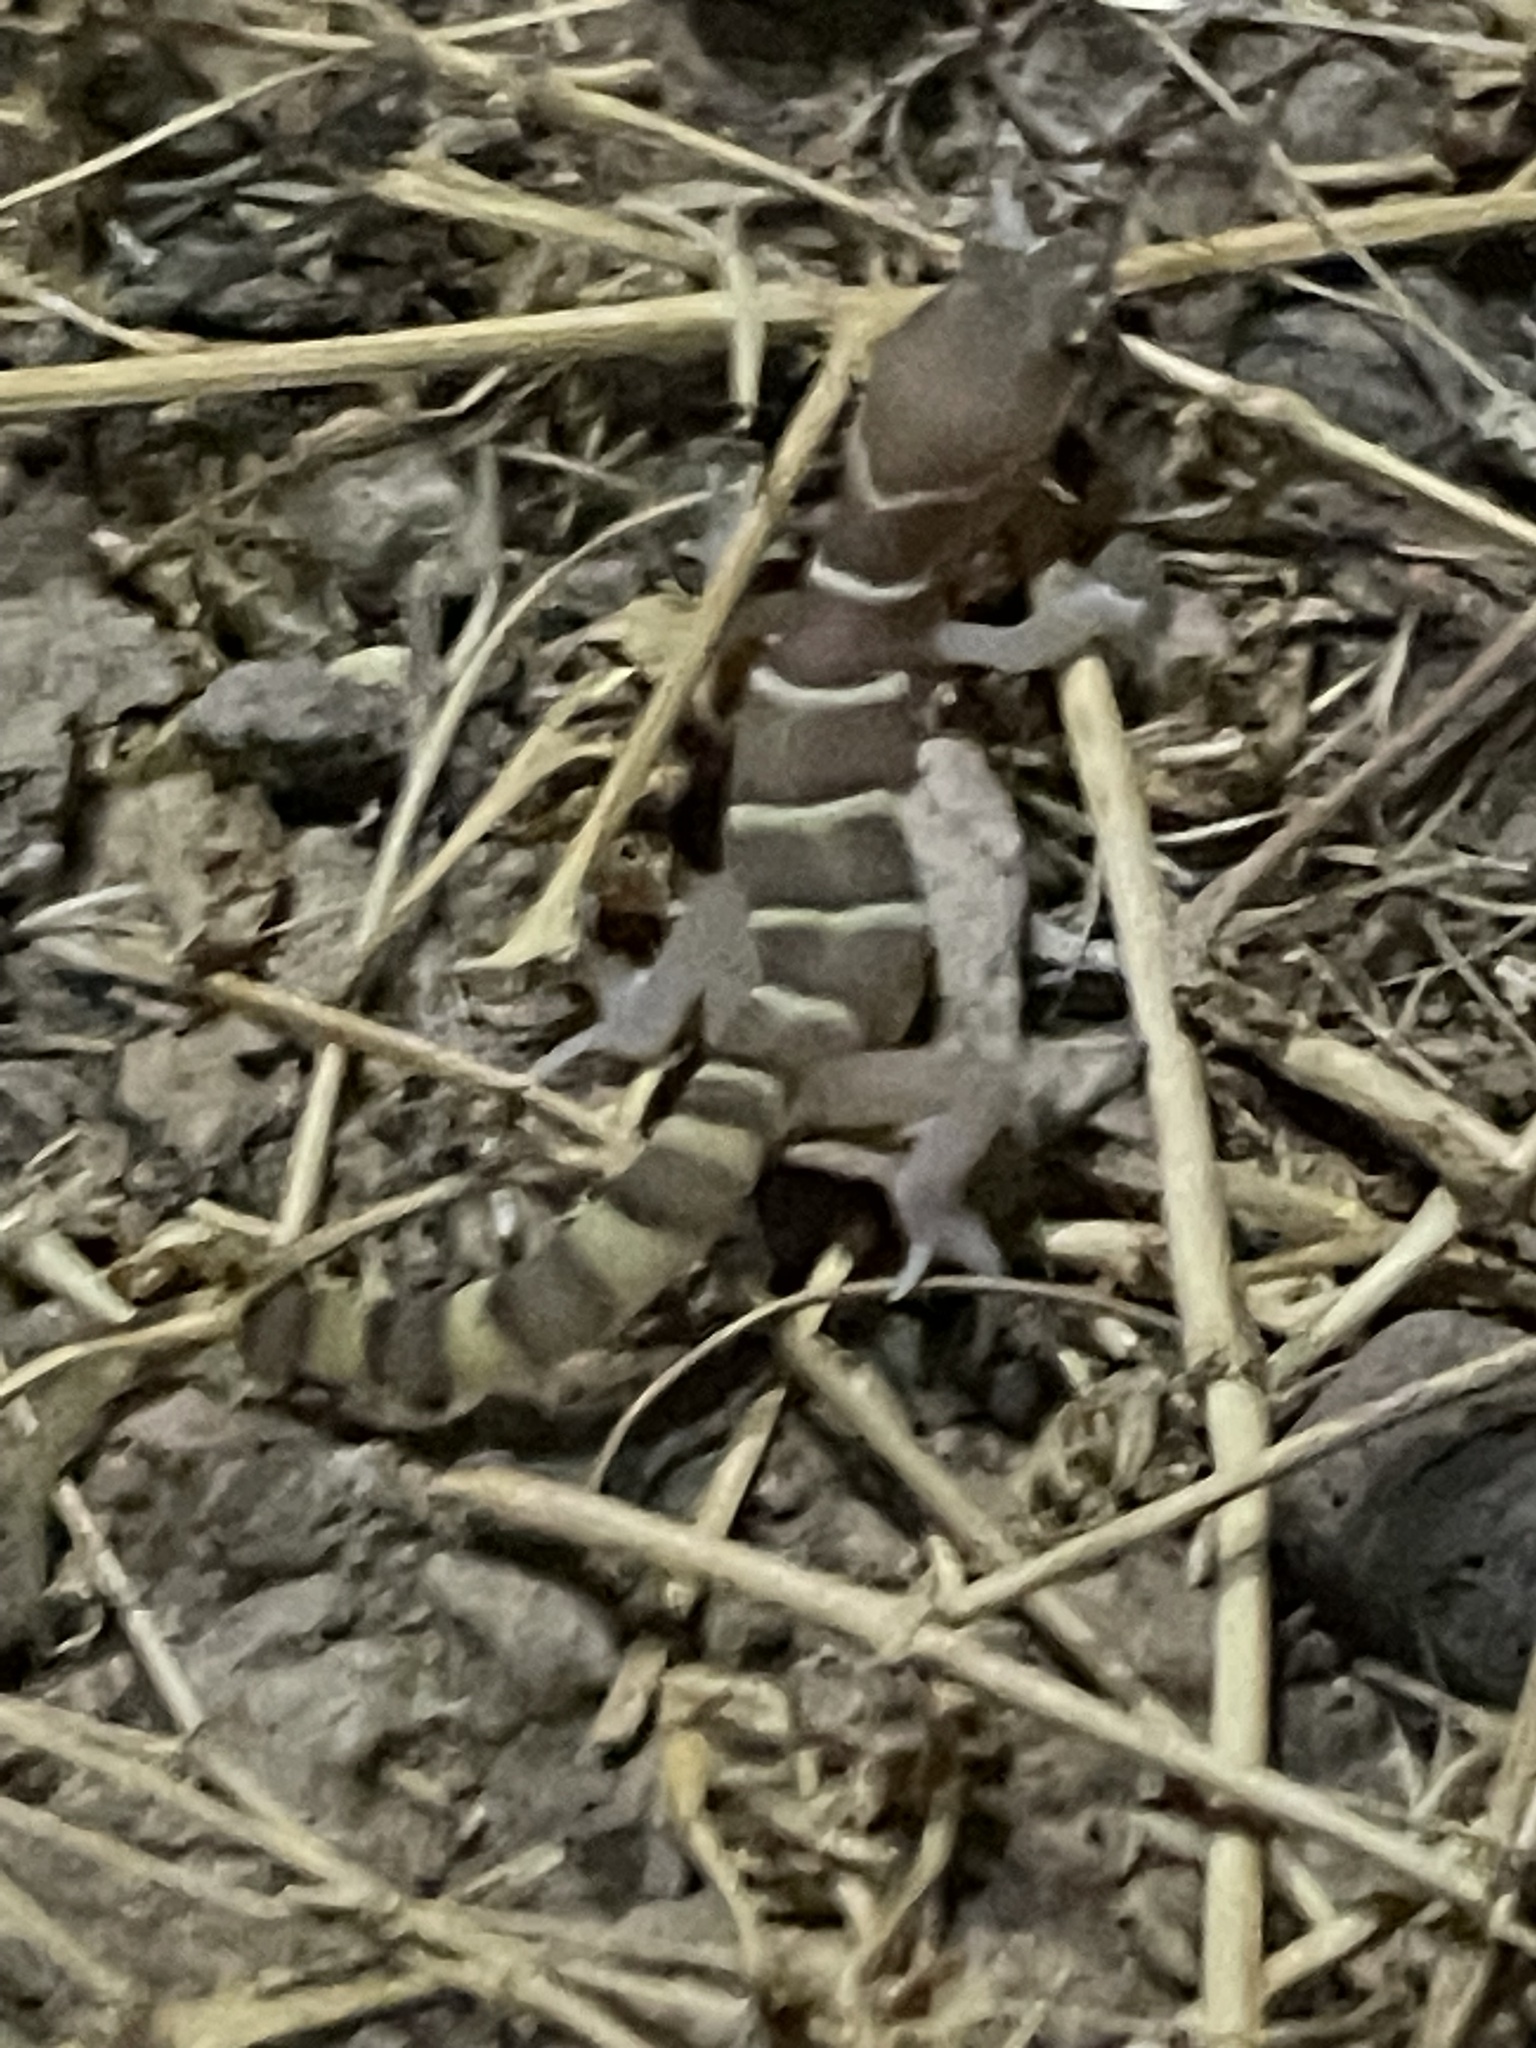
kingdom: Animalia
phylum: Chordata
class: Squamata
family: Eublepharidae
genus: Coleonyx
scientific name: Coleonyx variegatus
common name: Western banded gecko
